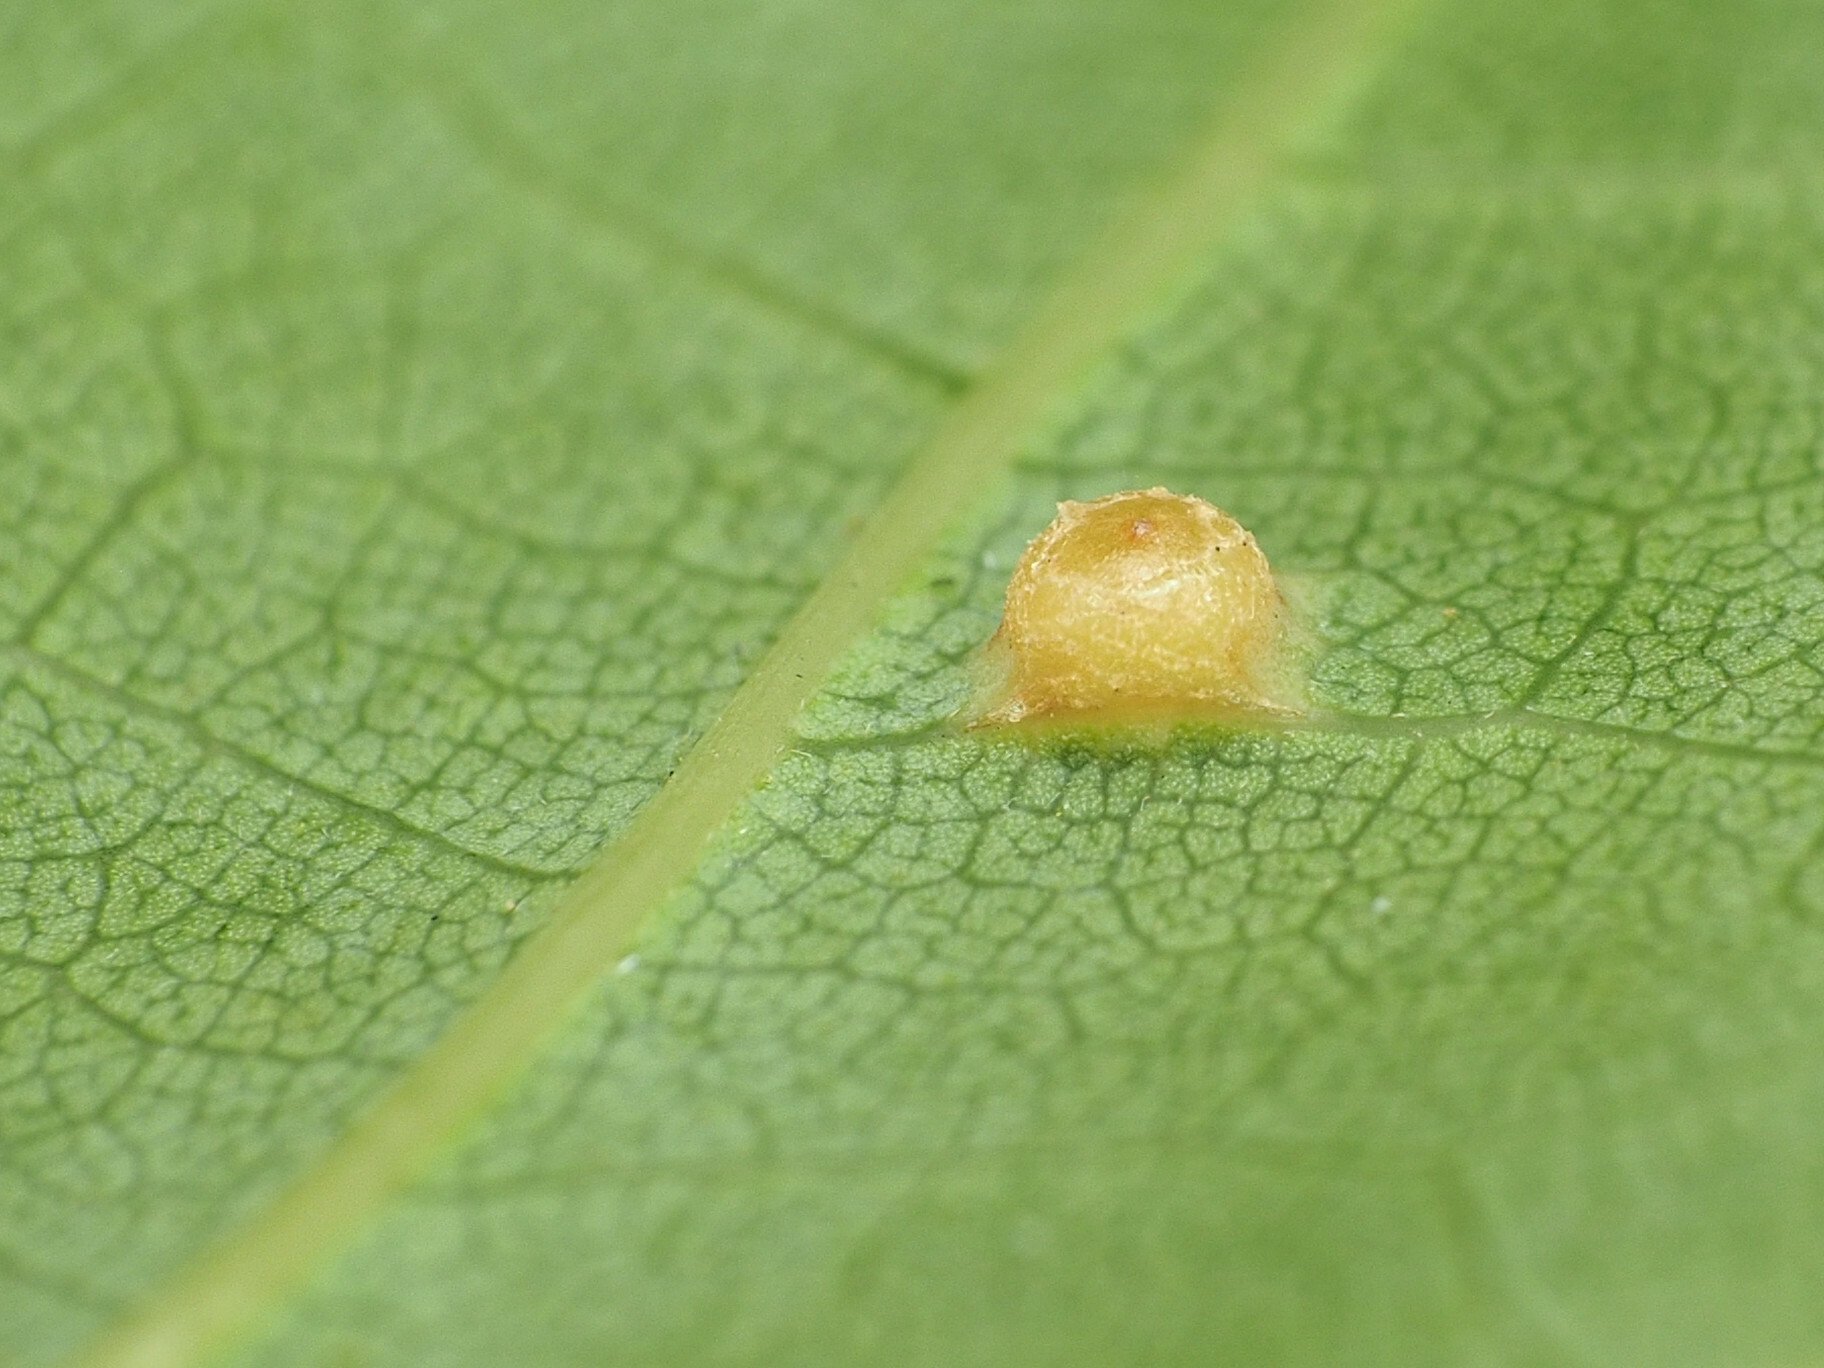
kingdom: Animalia
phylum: Arthropoda
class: Insecta
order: Diptera
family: Cecidomyiidae
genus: Polystepha
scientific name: Polystepha globosa
